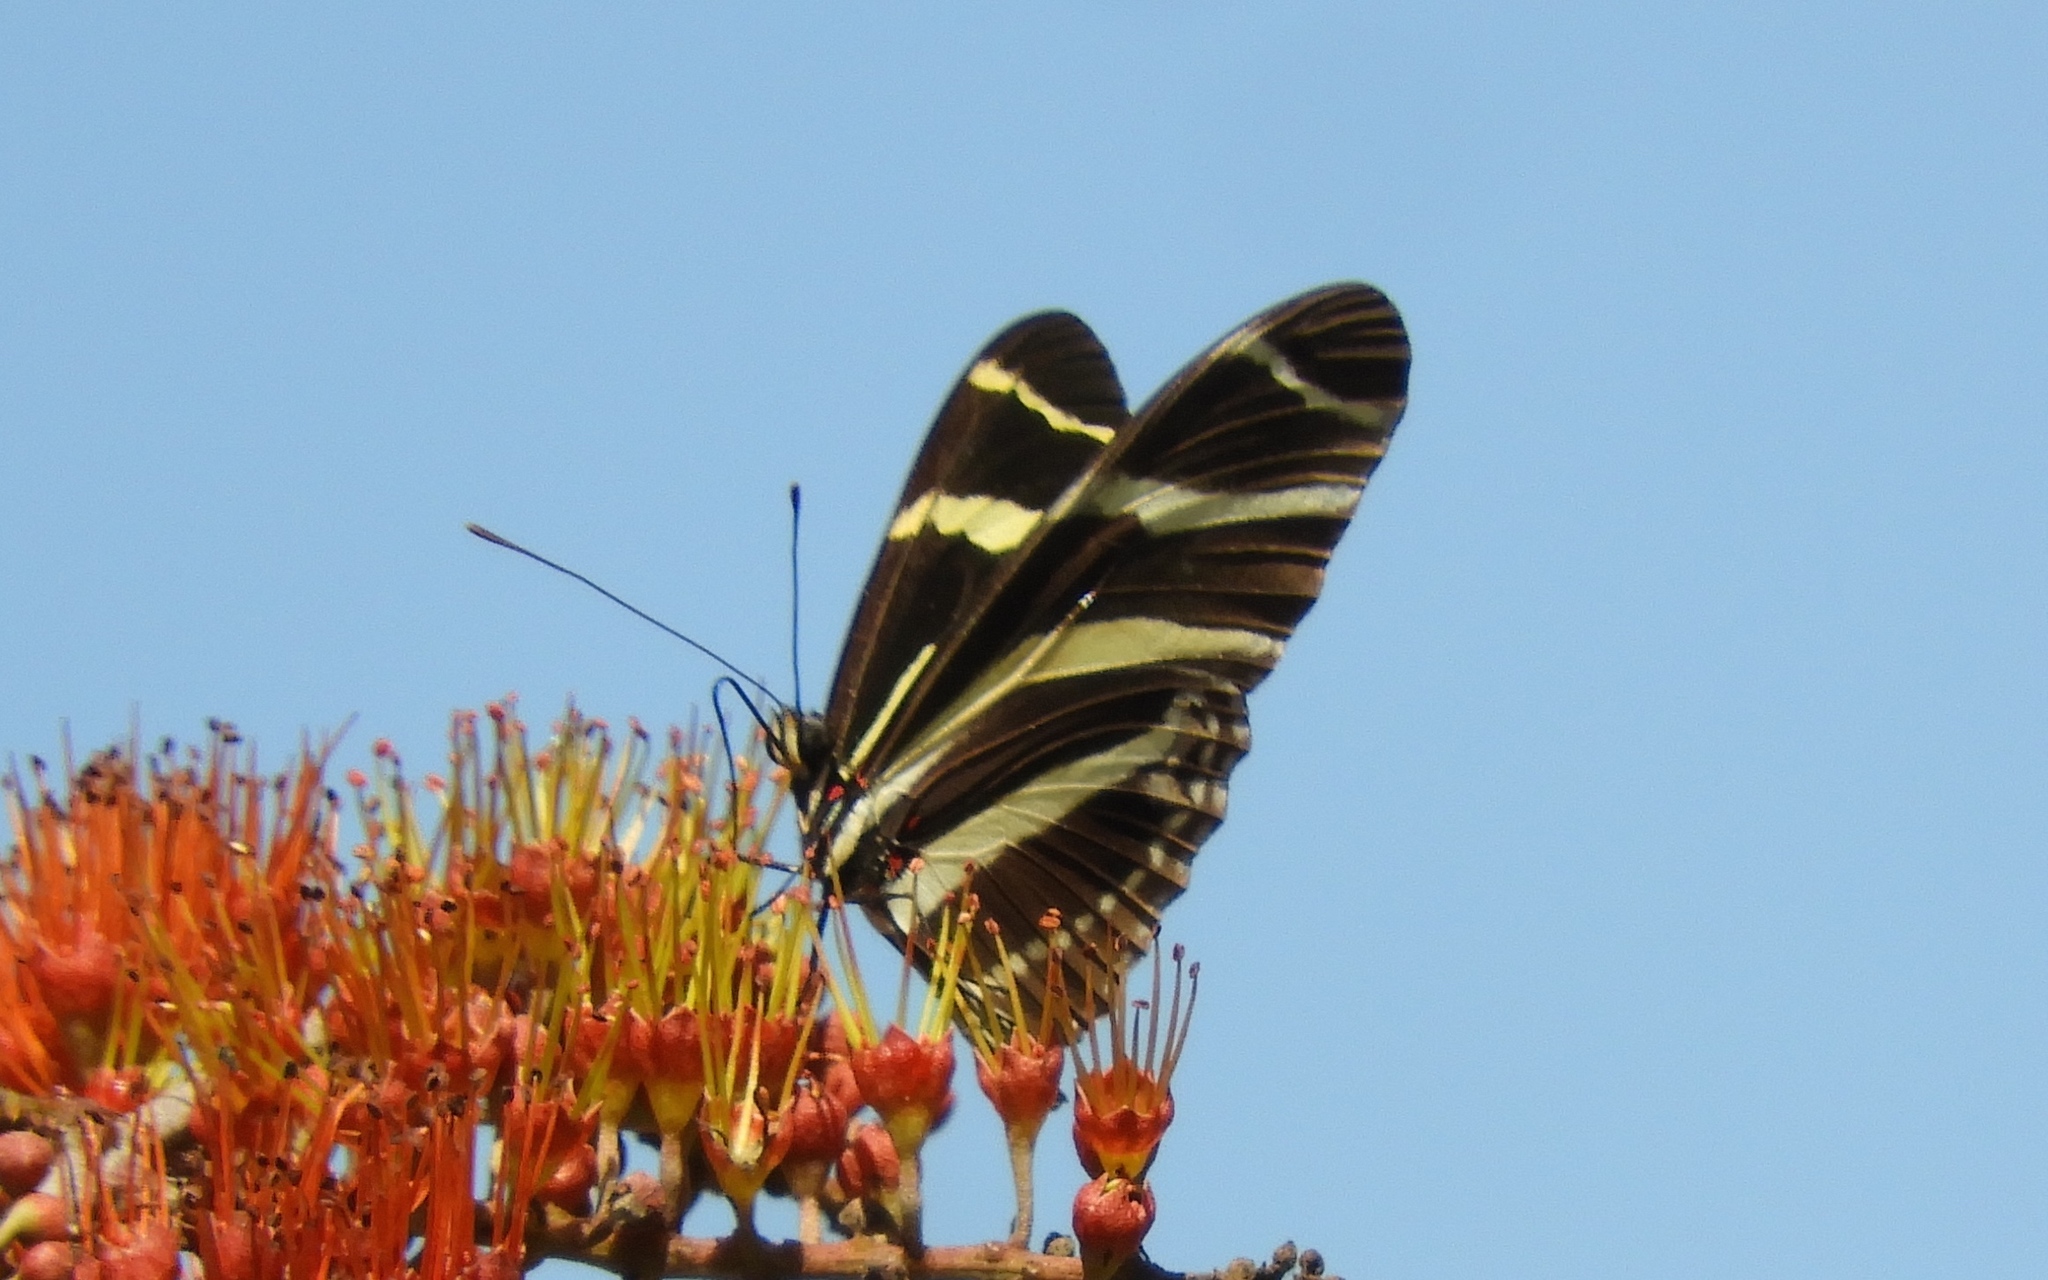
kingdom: Animalia
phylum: Arthropoda
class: Insecta
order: Lepidoptera
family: Nymphalidae
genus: Heliconius
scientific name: Heliconius charithonia
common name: Zebra long wing
